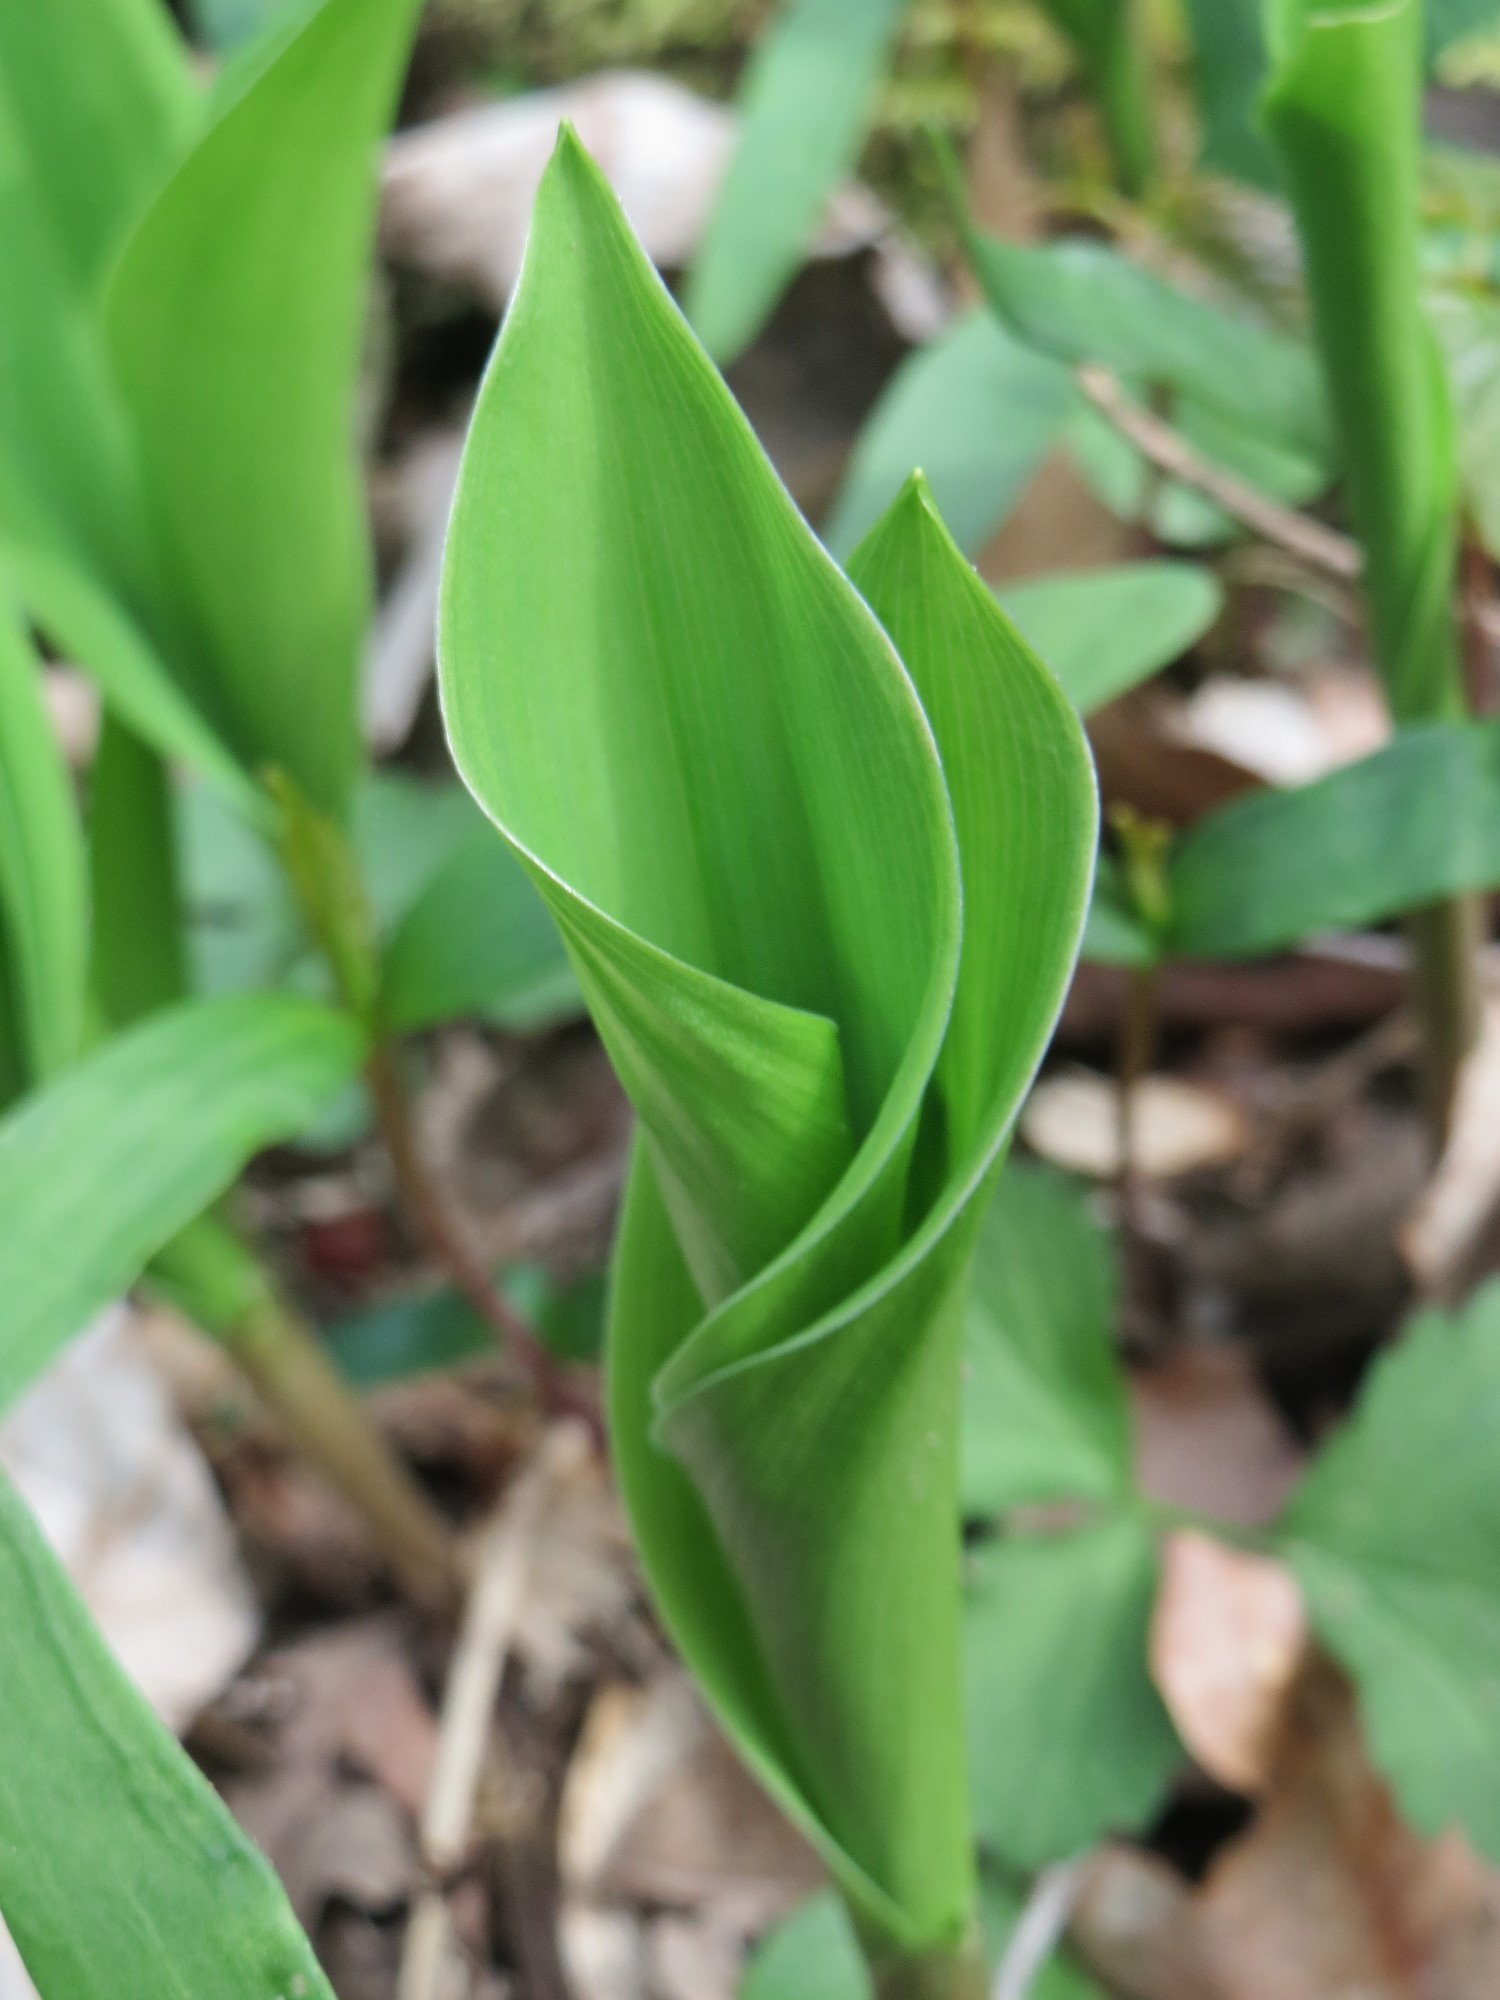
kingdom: Plantae
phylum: Tracheophyta
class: Liliopsida
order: Asparagales
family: Asparagaceae
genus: Convallaria
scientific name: Convallaria majalis
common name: Lily-of-the-valley
